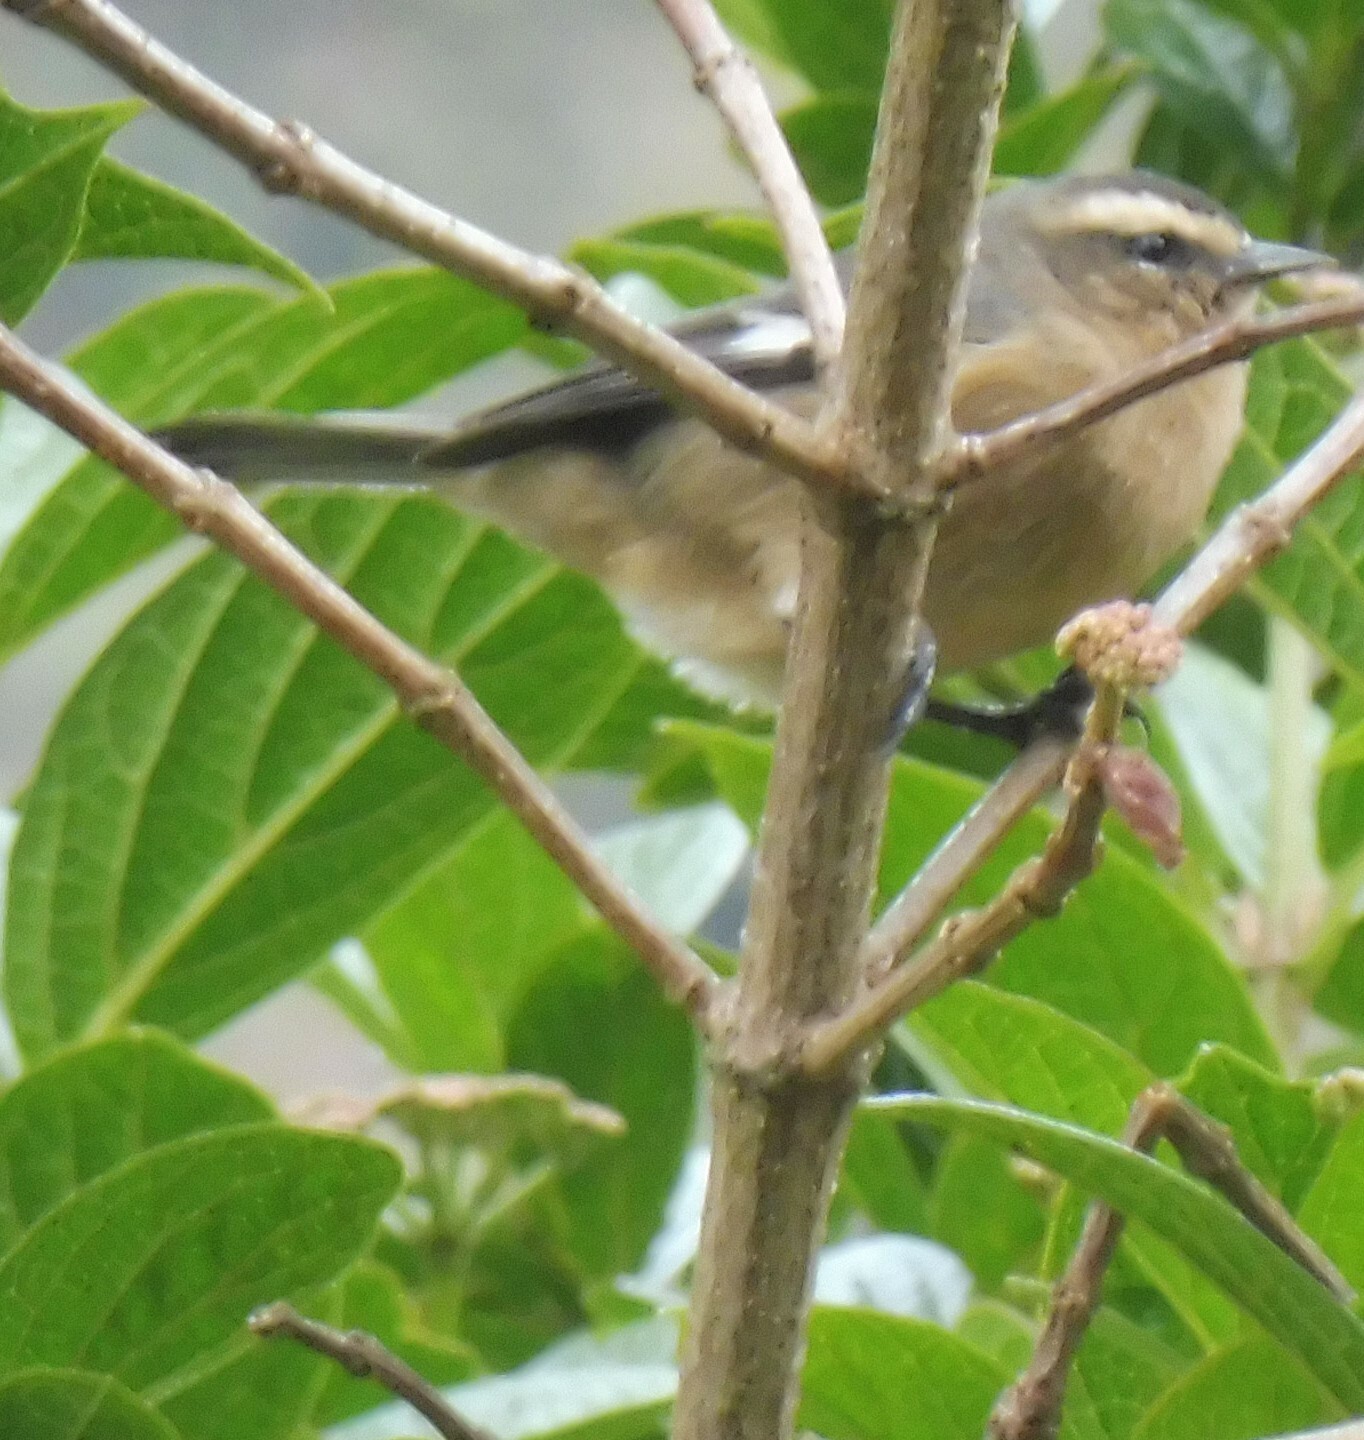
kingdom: Animalia
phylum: Chordata
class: Aves
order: Passeriformes
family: Thraupidae
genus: Conirostrum
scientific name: Conirostrum cinereum
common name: Cinereous conebill
